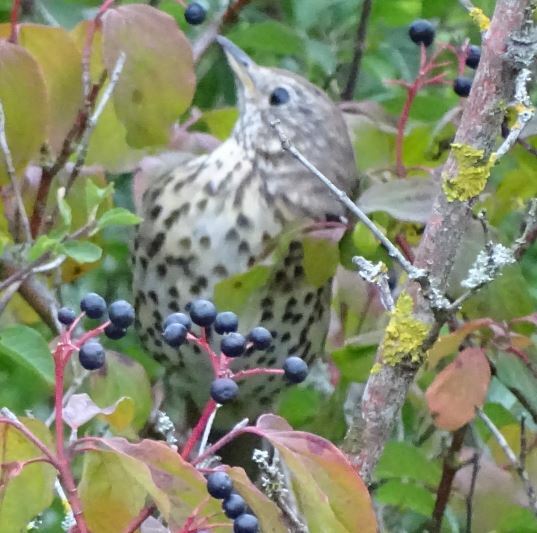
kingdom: Animalia
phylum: Chordata
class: Aves
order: Passeriformes
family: Turdidae
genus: Turdus
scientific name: Turdus philomelos
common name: Song thrush
